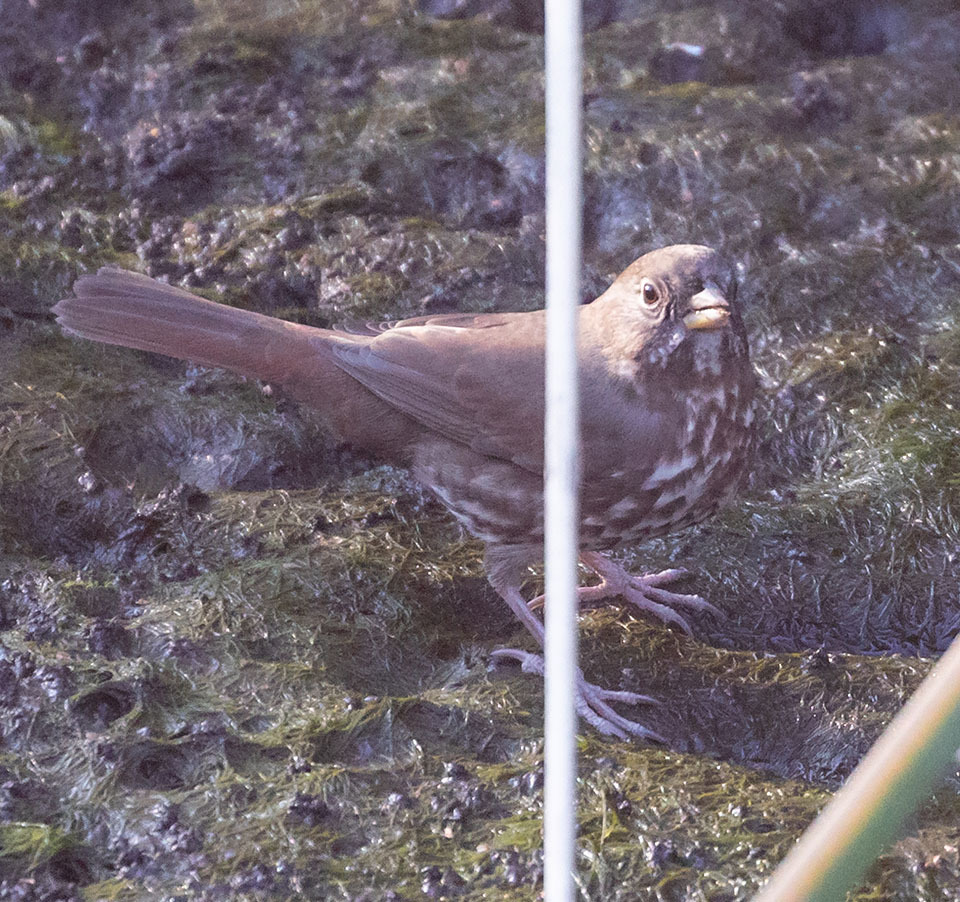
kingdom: Animalia
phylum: Chordata
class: Aves
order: Passeriformes
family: Passerellidae
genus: Passerella
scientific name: Passerella iliaca
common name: Fox sparrow
